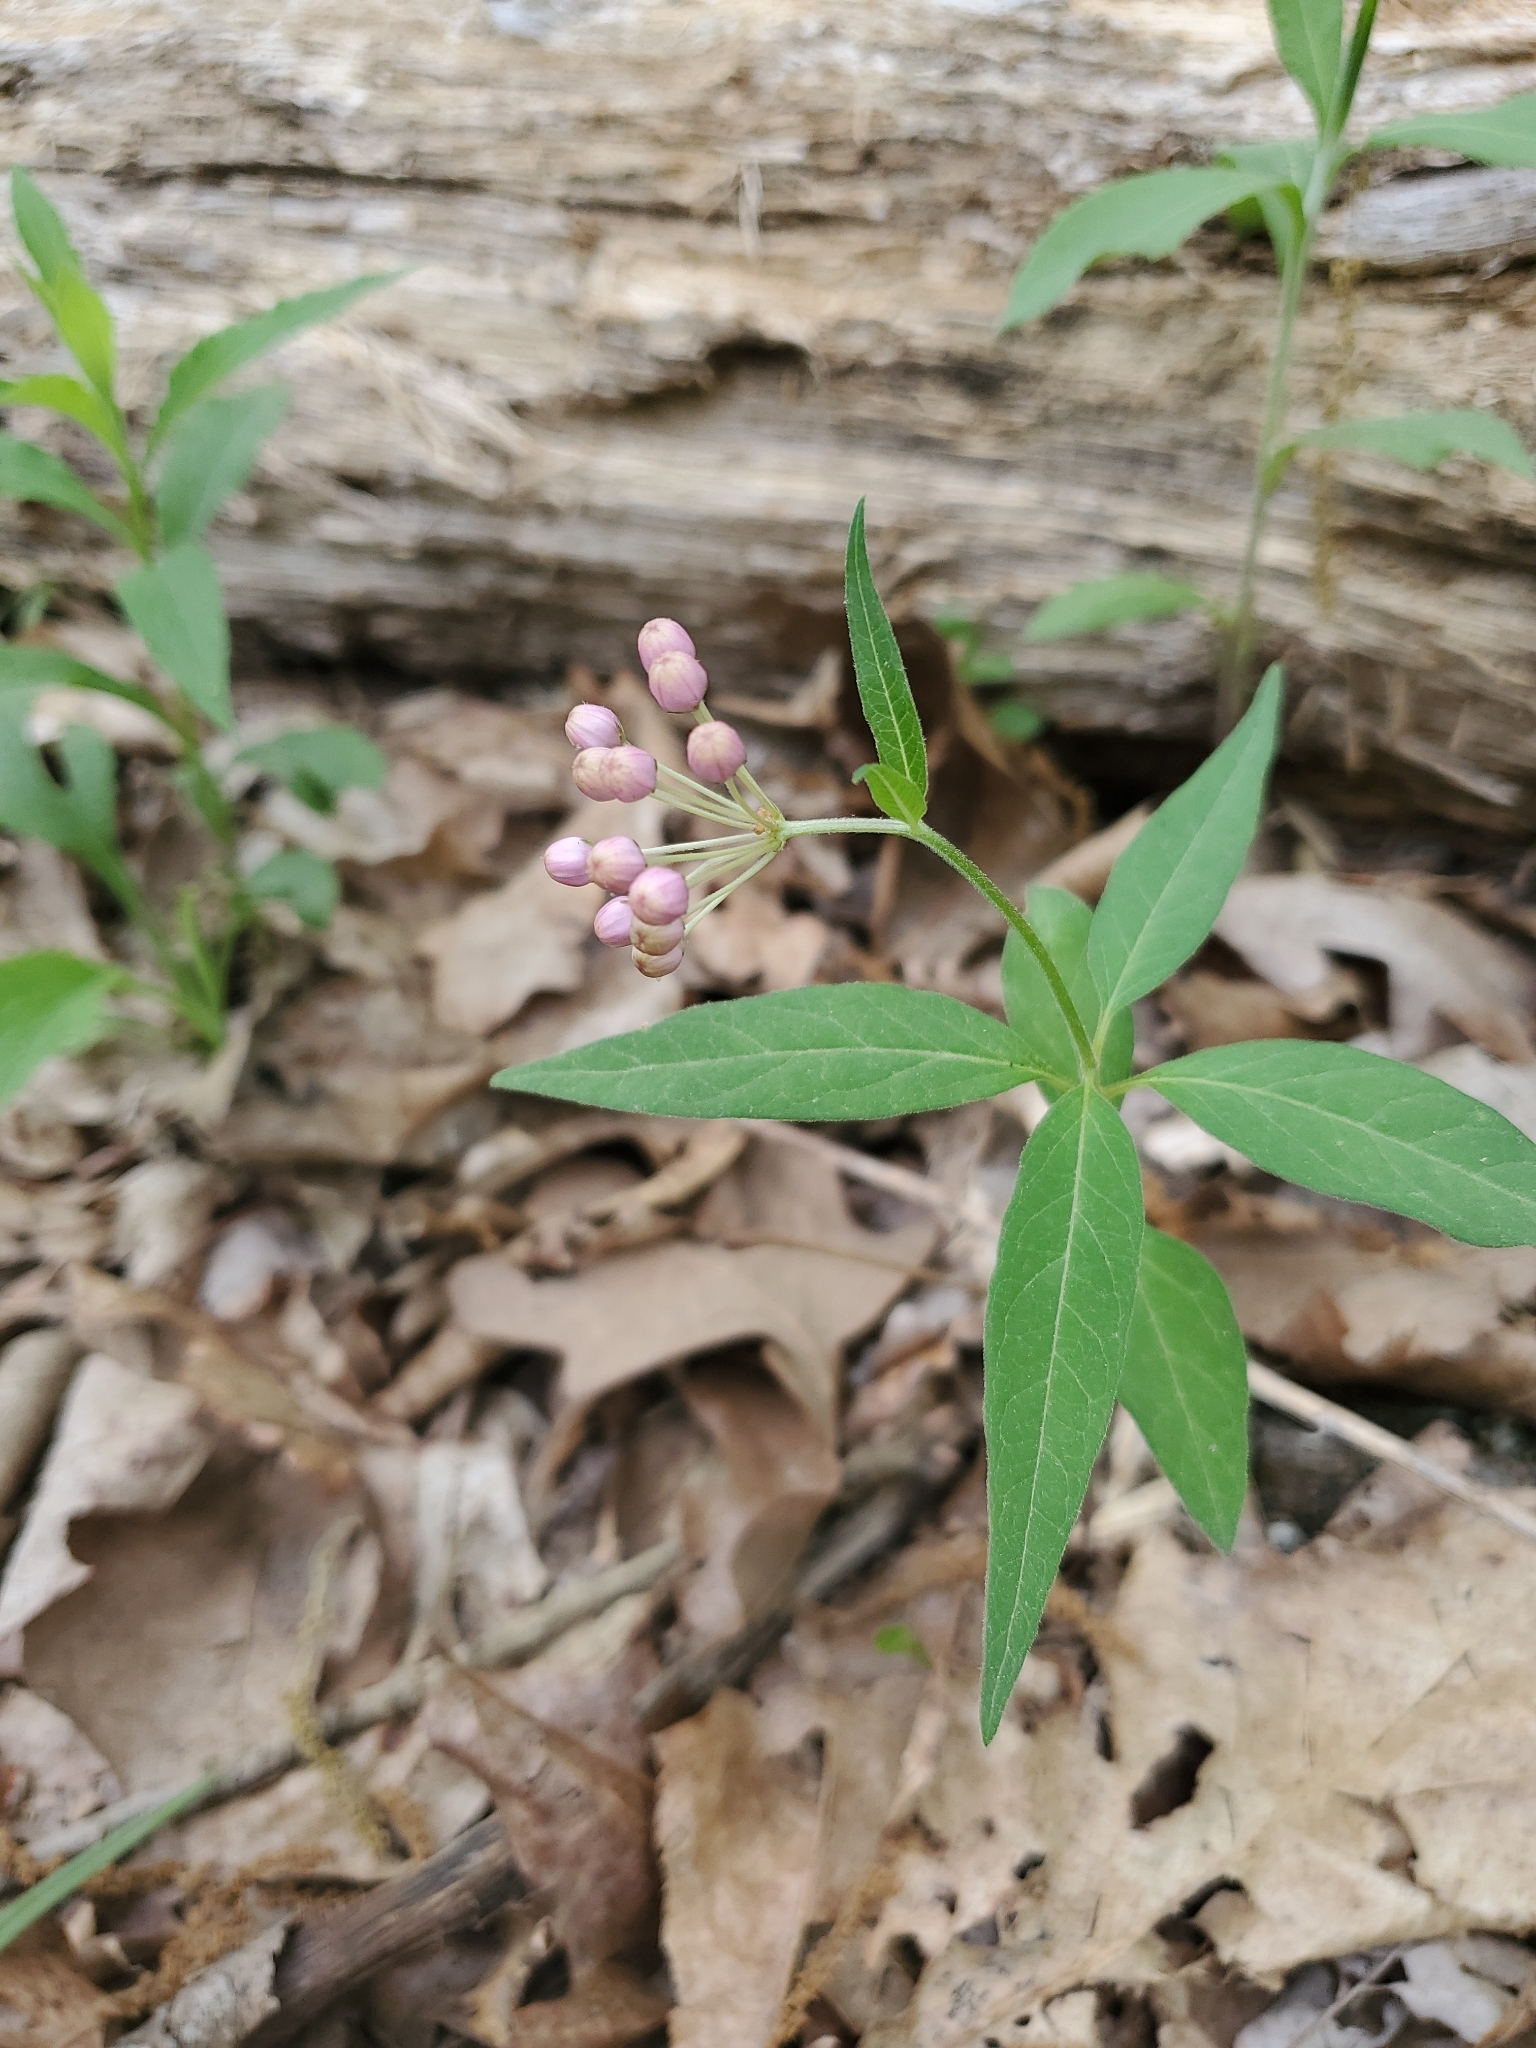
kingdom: Plantae
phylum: Tracheophyta
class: Magnoliopsida
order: Gentianales
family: Apocynaceae
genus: Asclepias
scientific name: Asclepias quadrifolia
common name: Whorled milkweed
